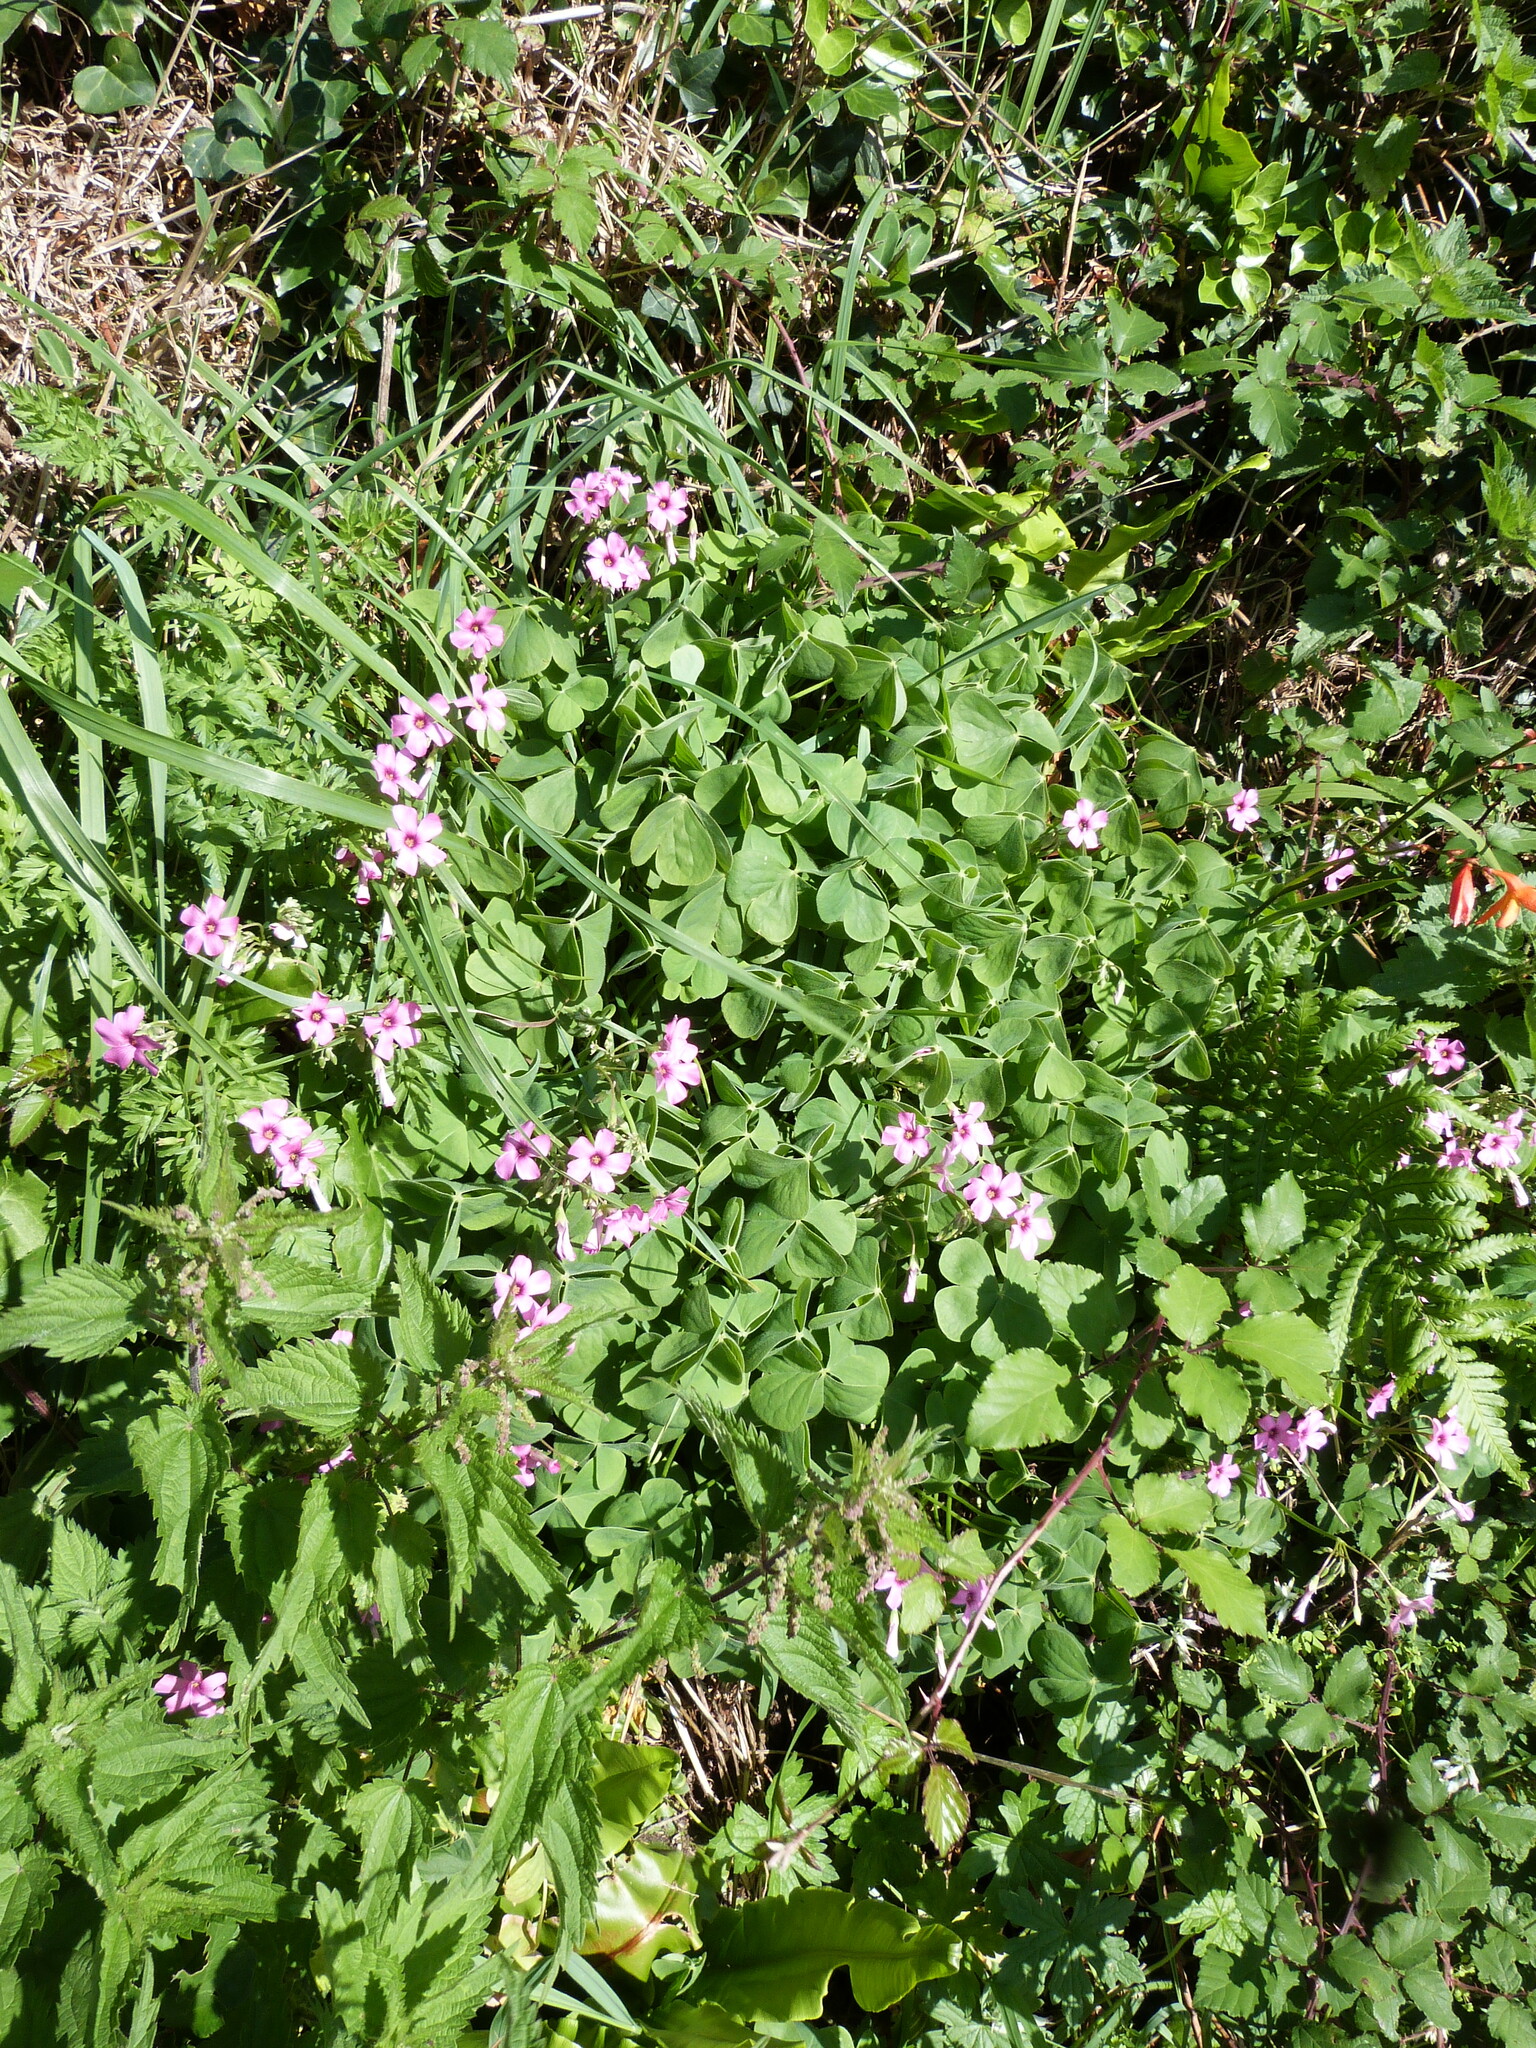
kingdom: Plantae
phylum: Tracheophyta
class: Magnoliopsida
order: Oxalidales
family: Oxalidaceae
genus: Oxalis
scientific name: Oxalis articulata
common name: Pink-sorrel
